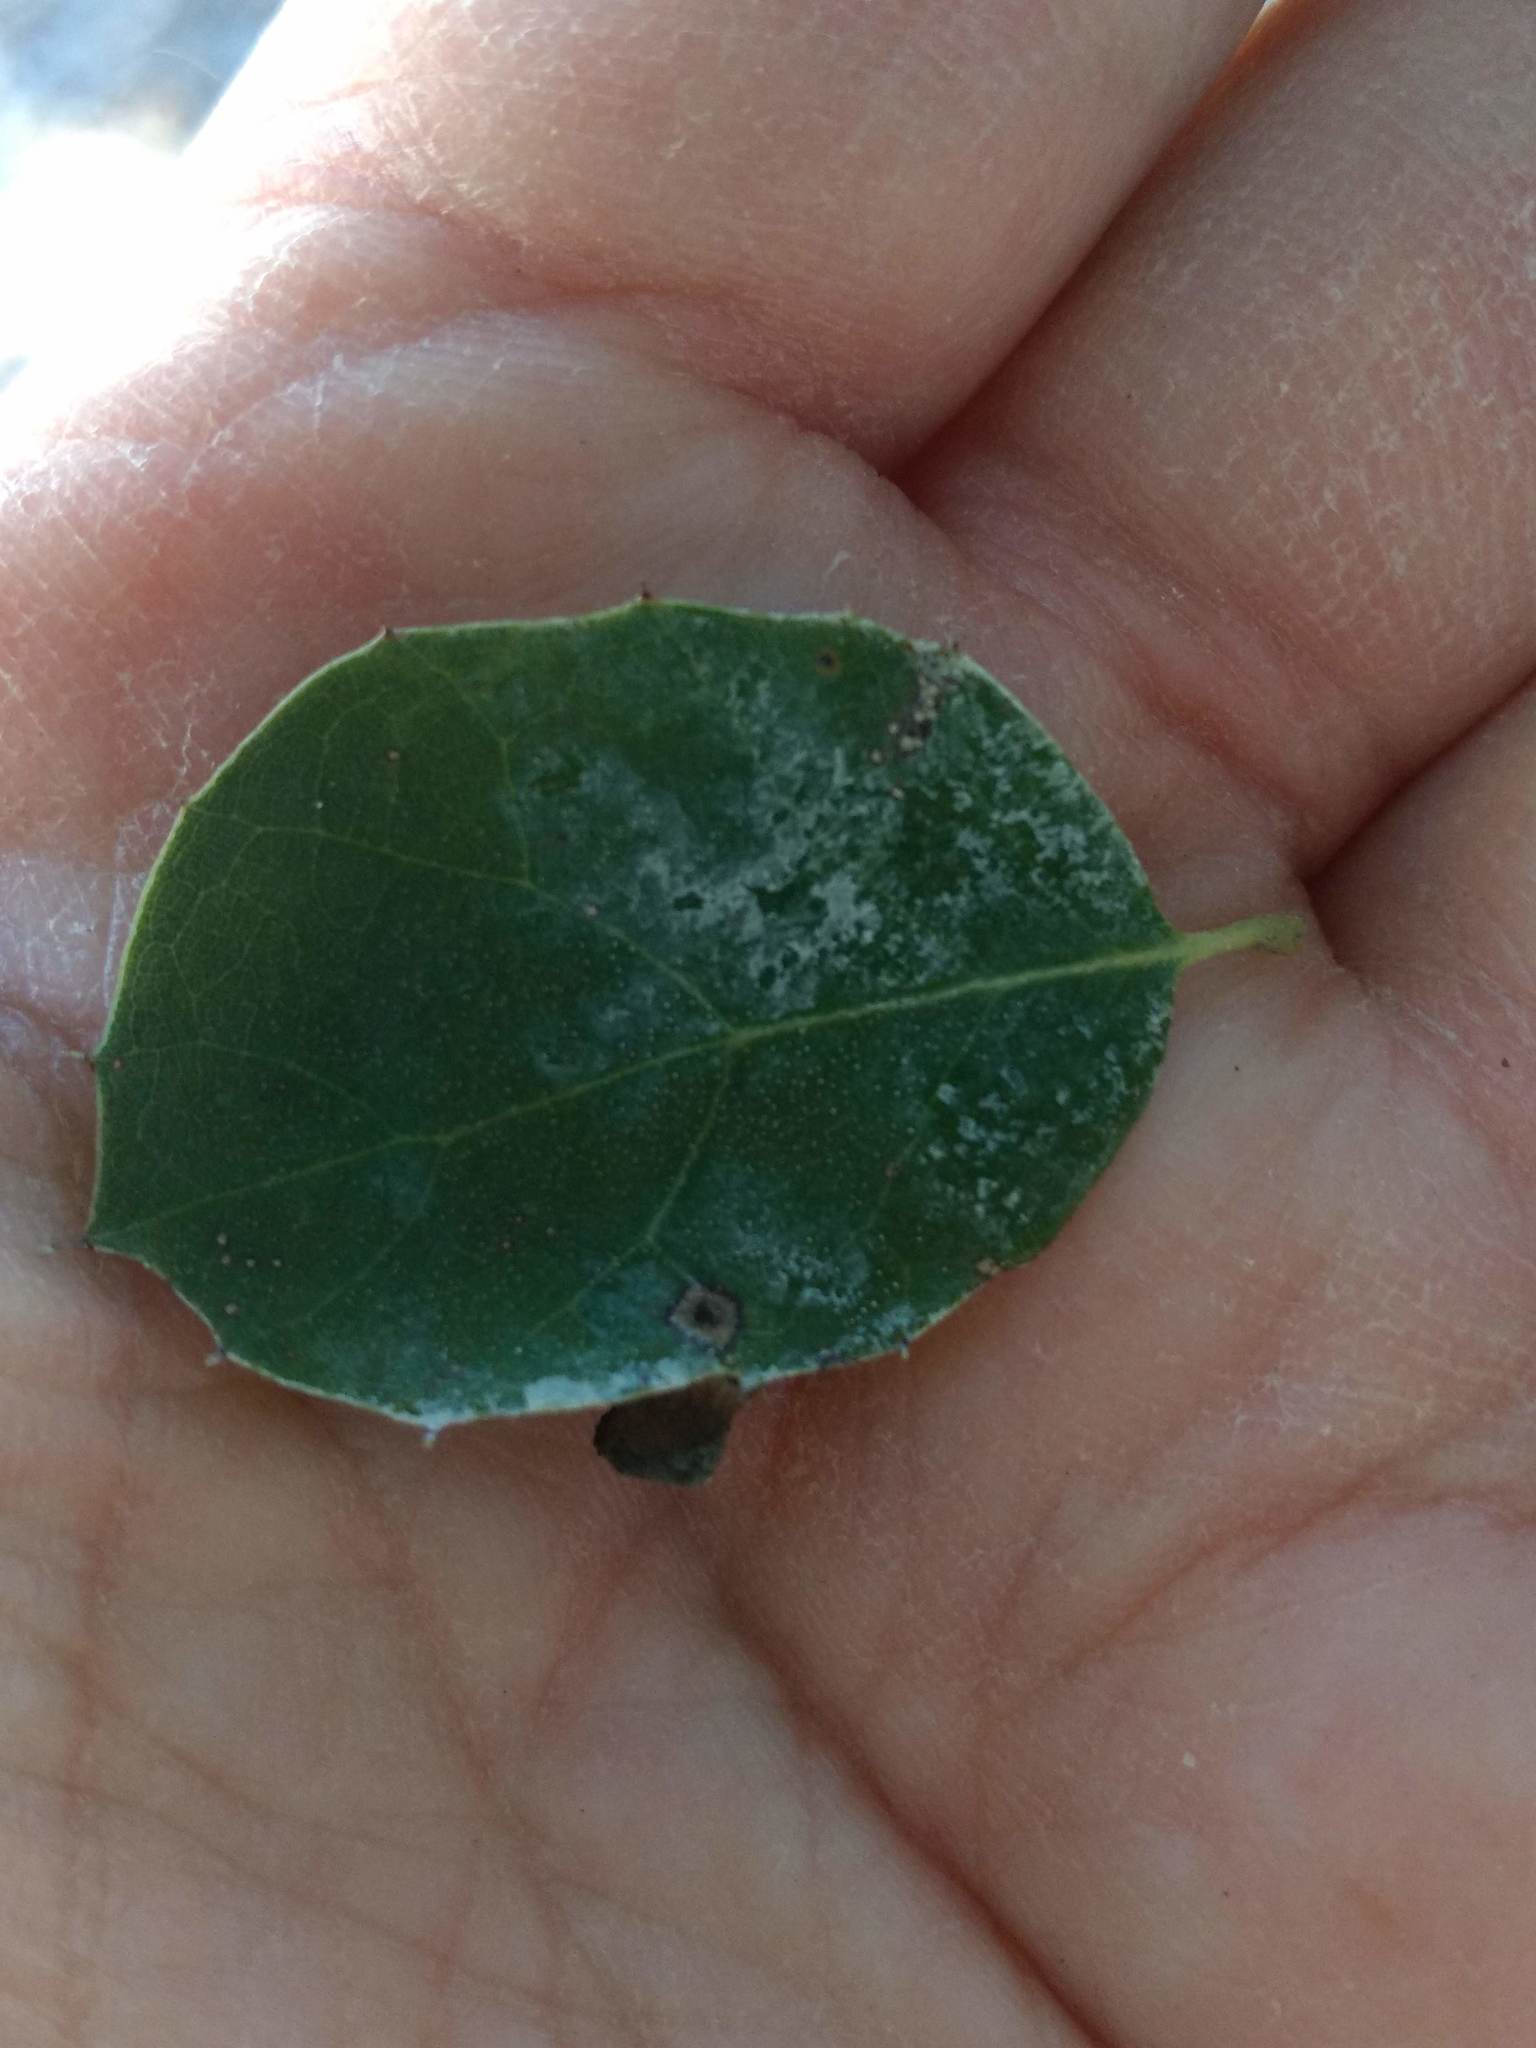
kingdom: Animalia
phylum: Arthropoda
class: Insecta
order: Hymenoptera
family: Cynipidae
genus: Amphibolips
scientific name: Amphibolips quercuspomiformis
